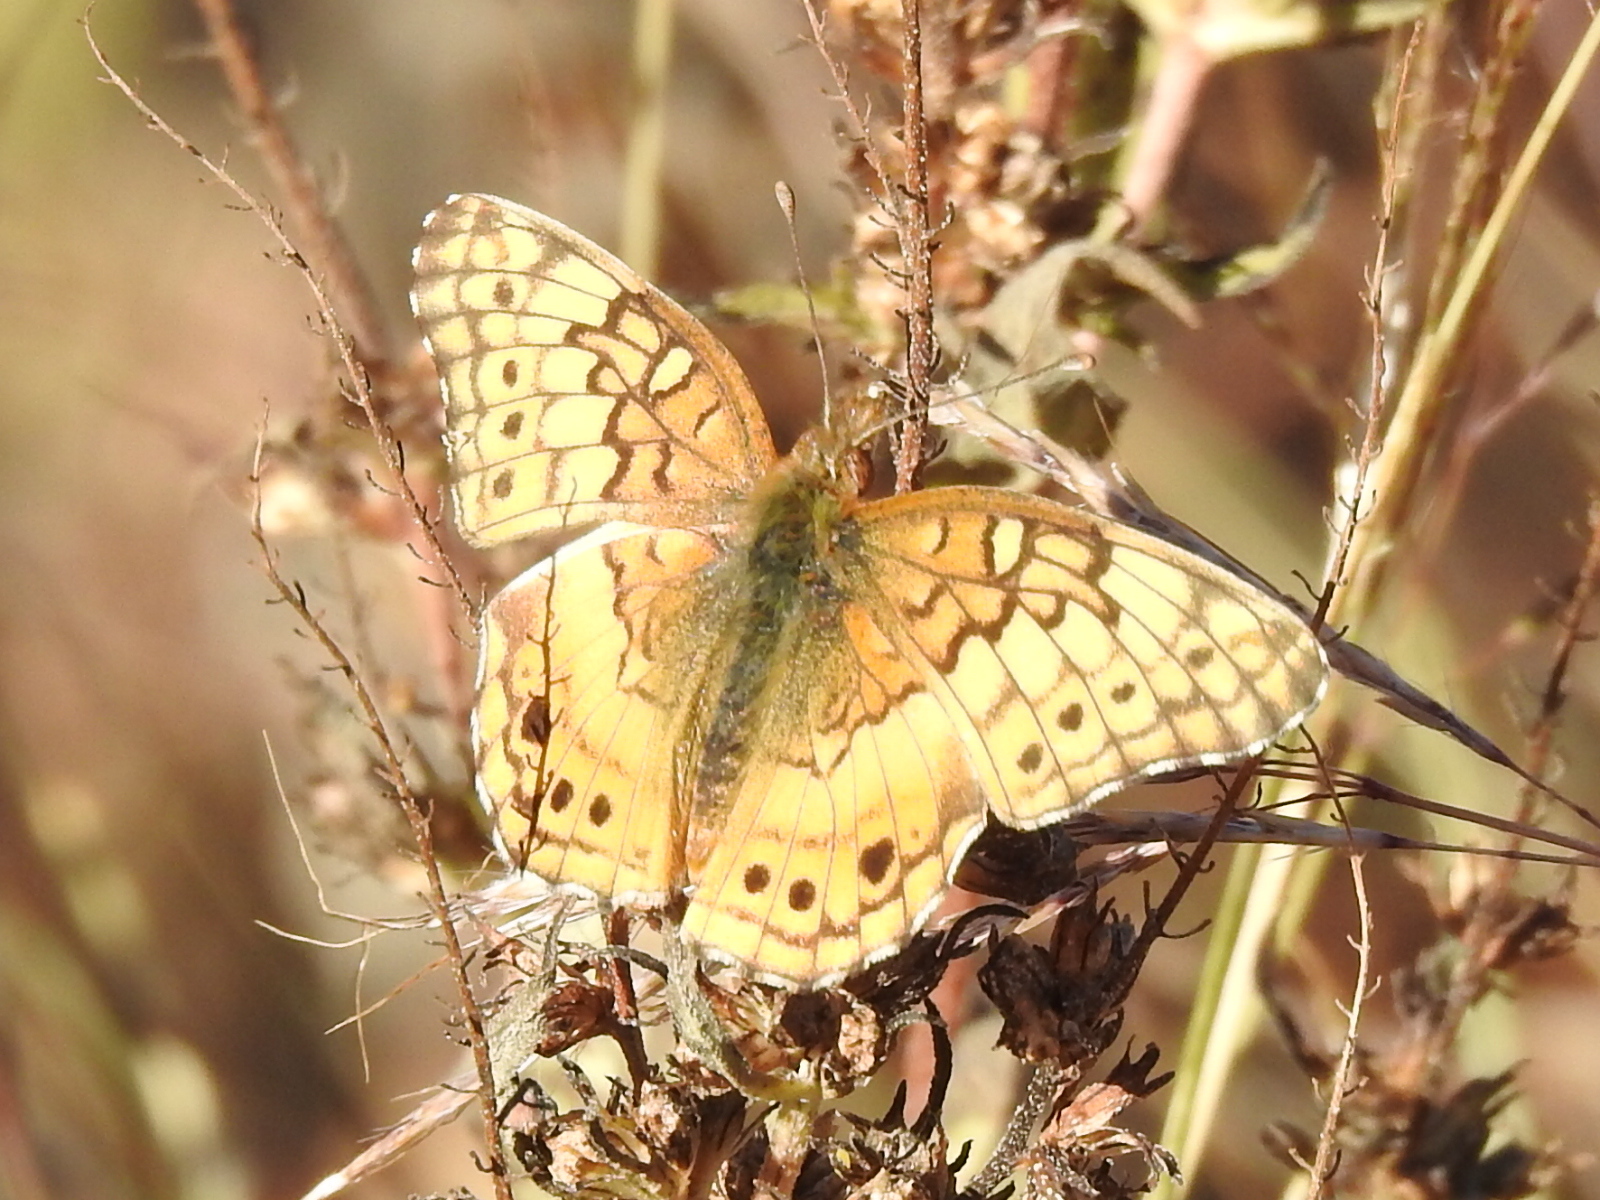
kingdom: Animalia
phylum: Arthropoda
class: Insecta
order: Lepidoptera
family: Nymphalidae
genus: Euptoieta
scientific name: Euptoieta claudia
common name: Variegated fritillary
